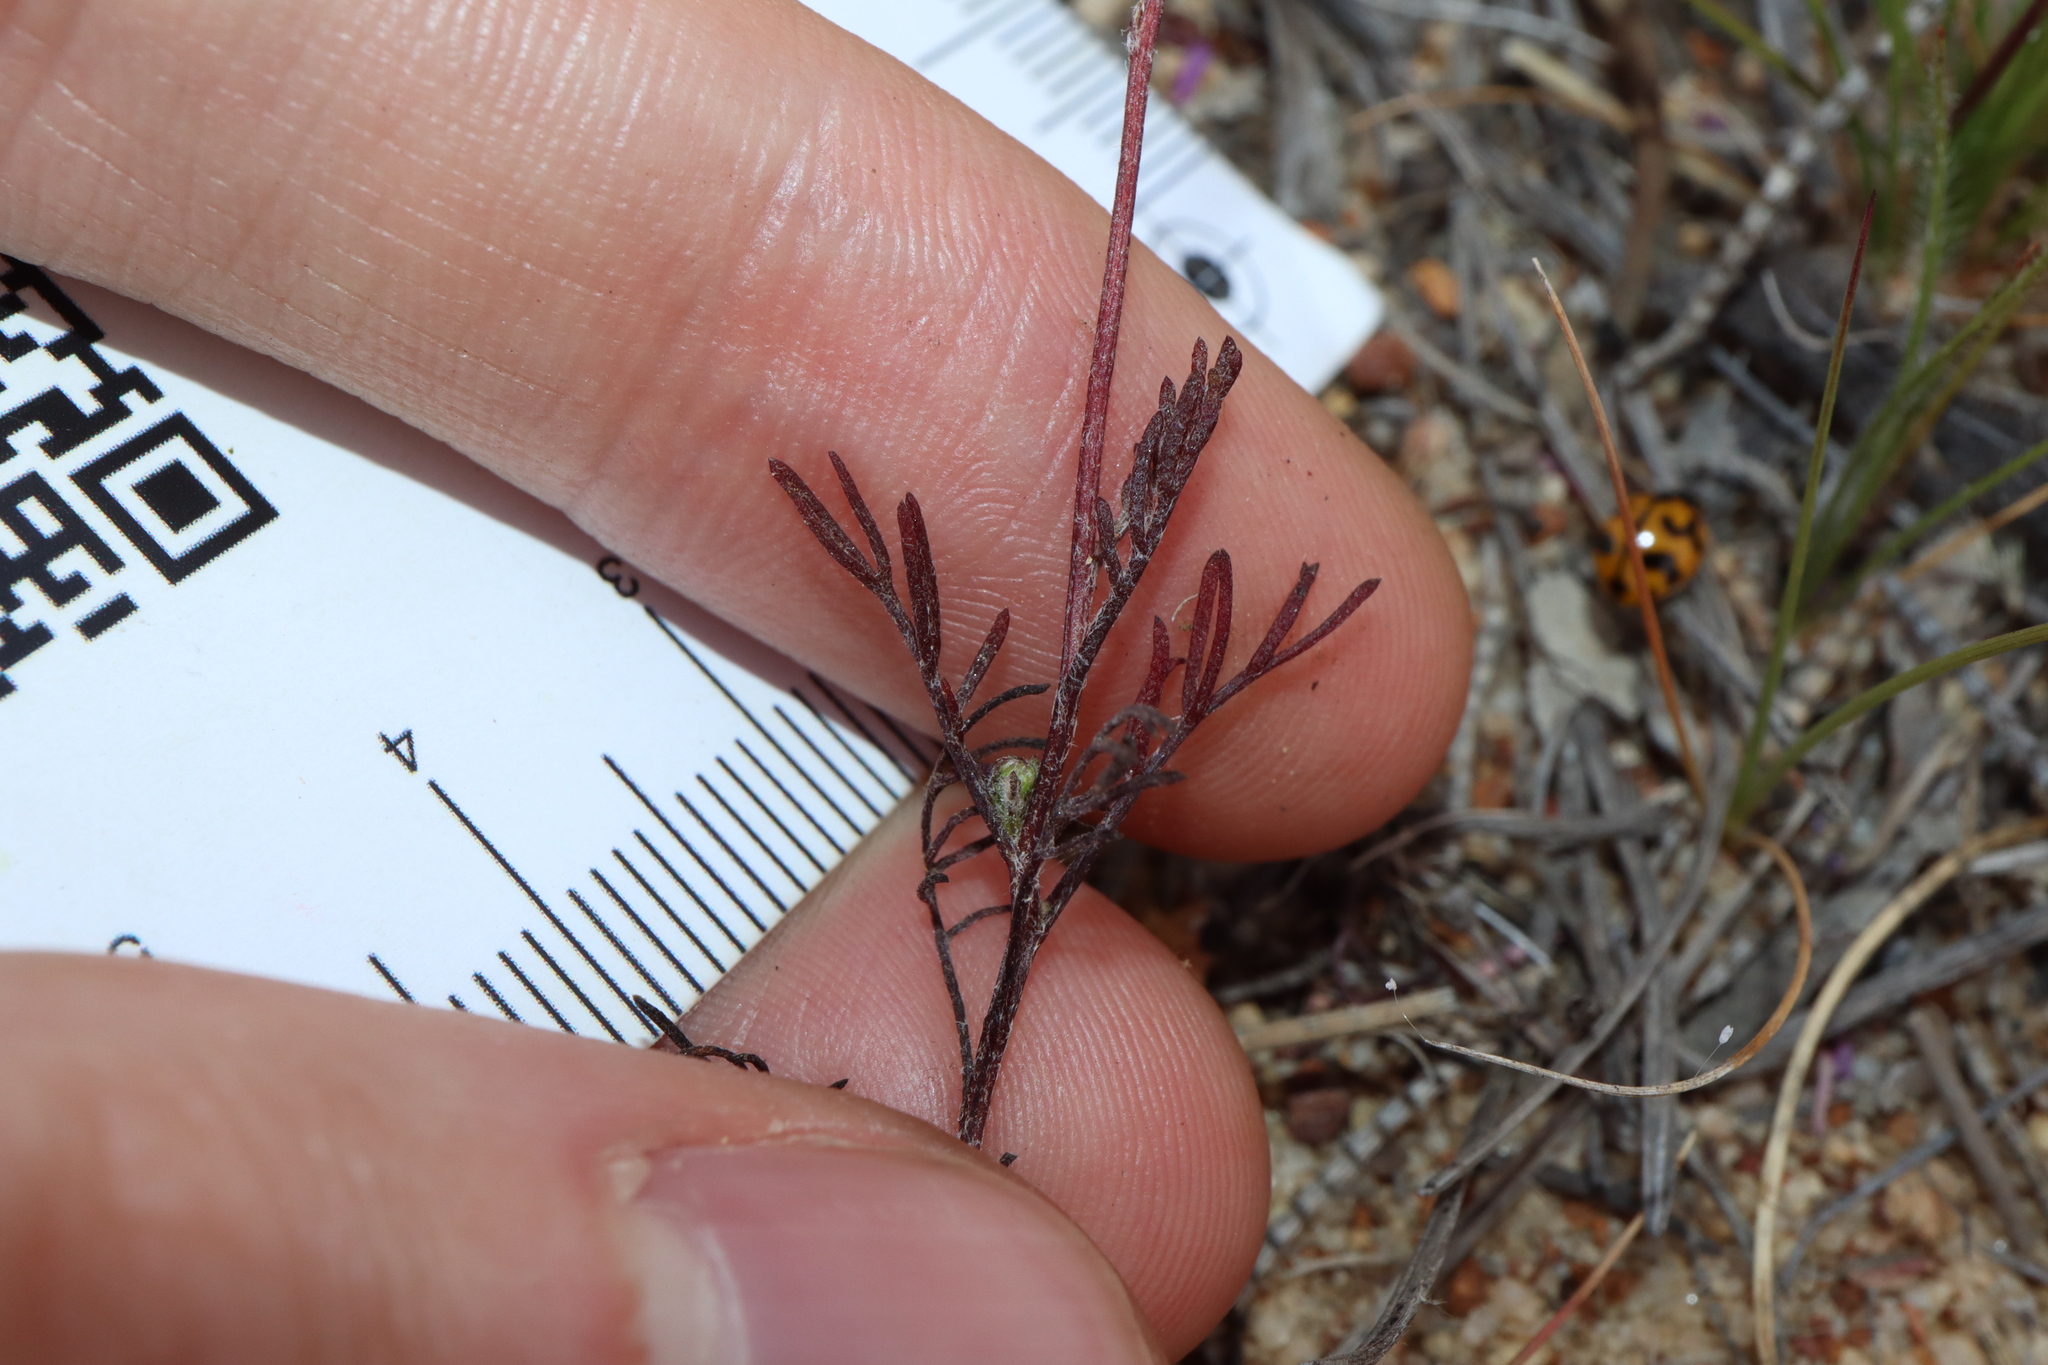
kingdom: Plantae
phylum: Tracheophyta
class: Magnoliopsida
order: Asterales
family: Asteraceae
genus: Ursinia
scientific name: Ursinia anthemoides
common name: Ursinia
